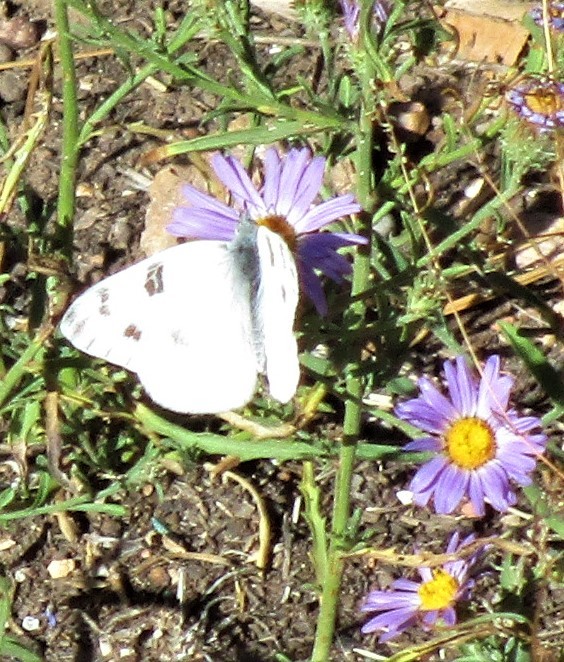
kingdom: Animalia
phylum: Arthropoda
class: Insecta
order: Lepidoptera
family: Pieridae
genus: Pontia
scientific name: Pontia protodice
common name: Checkered white
